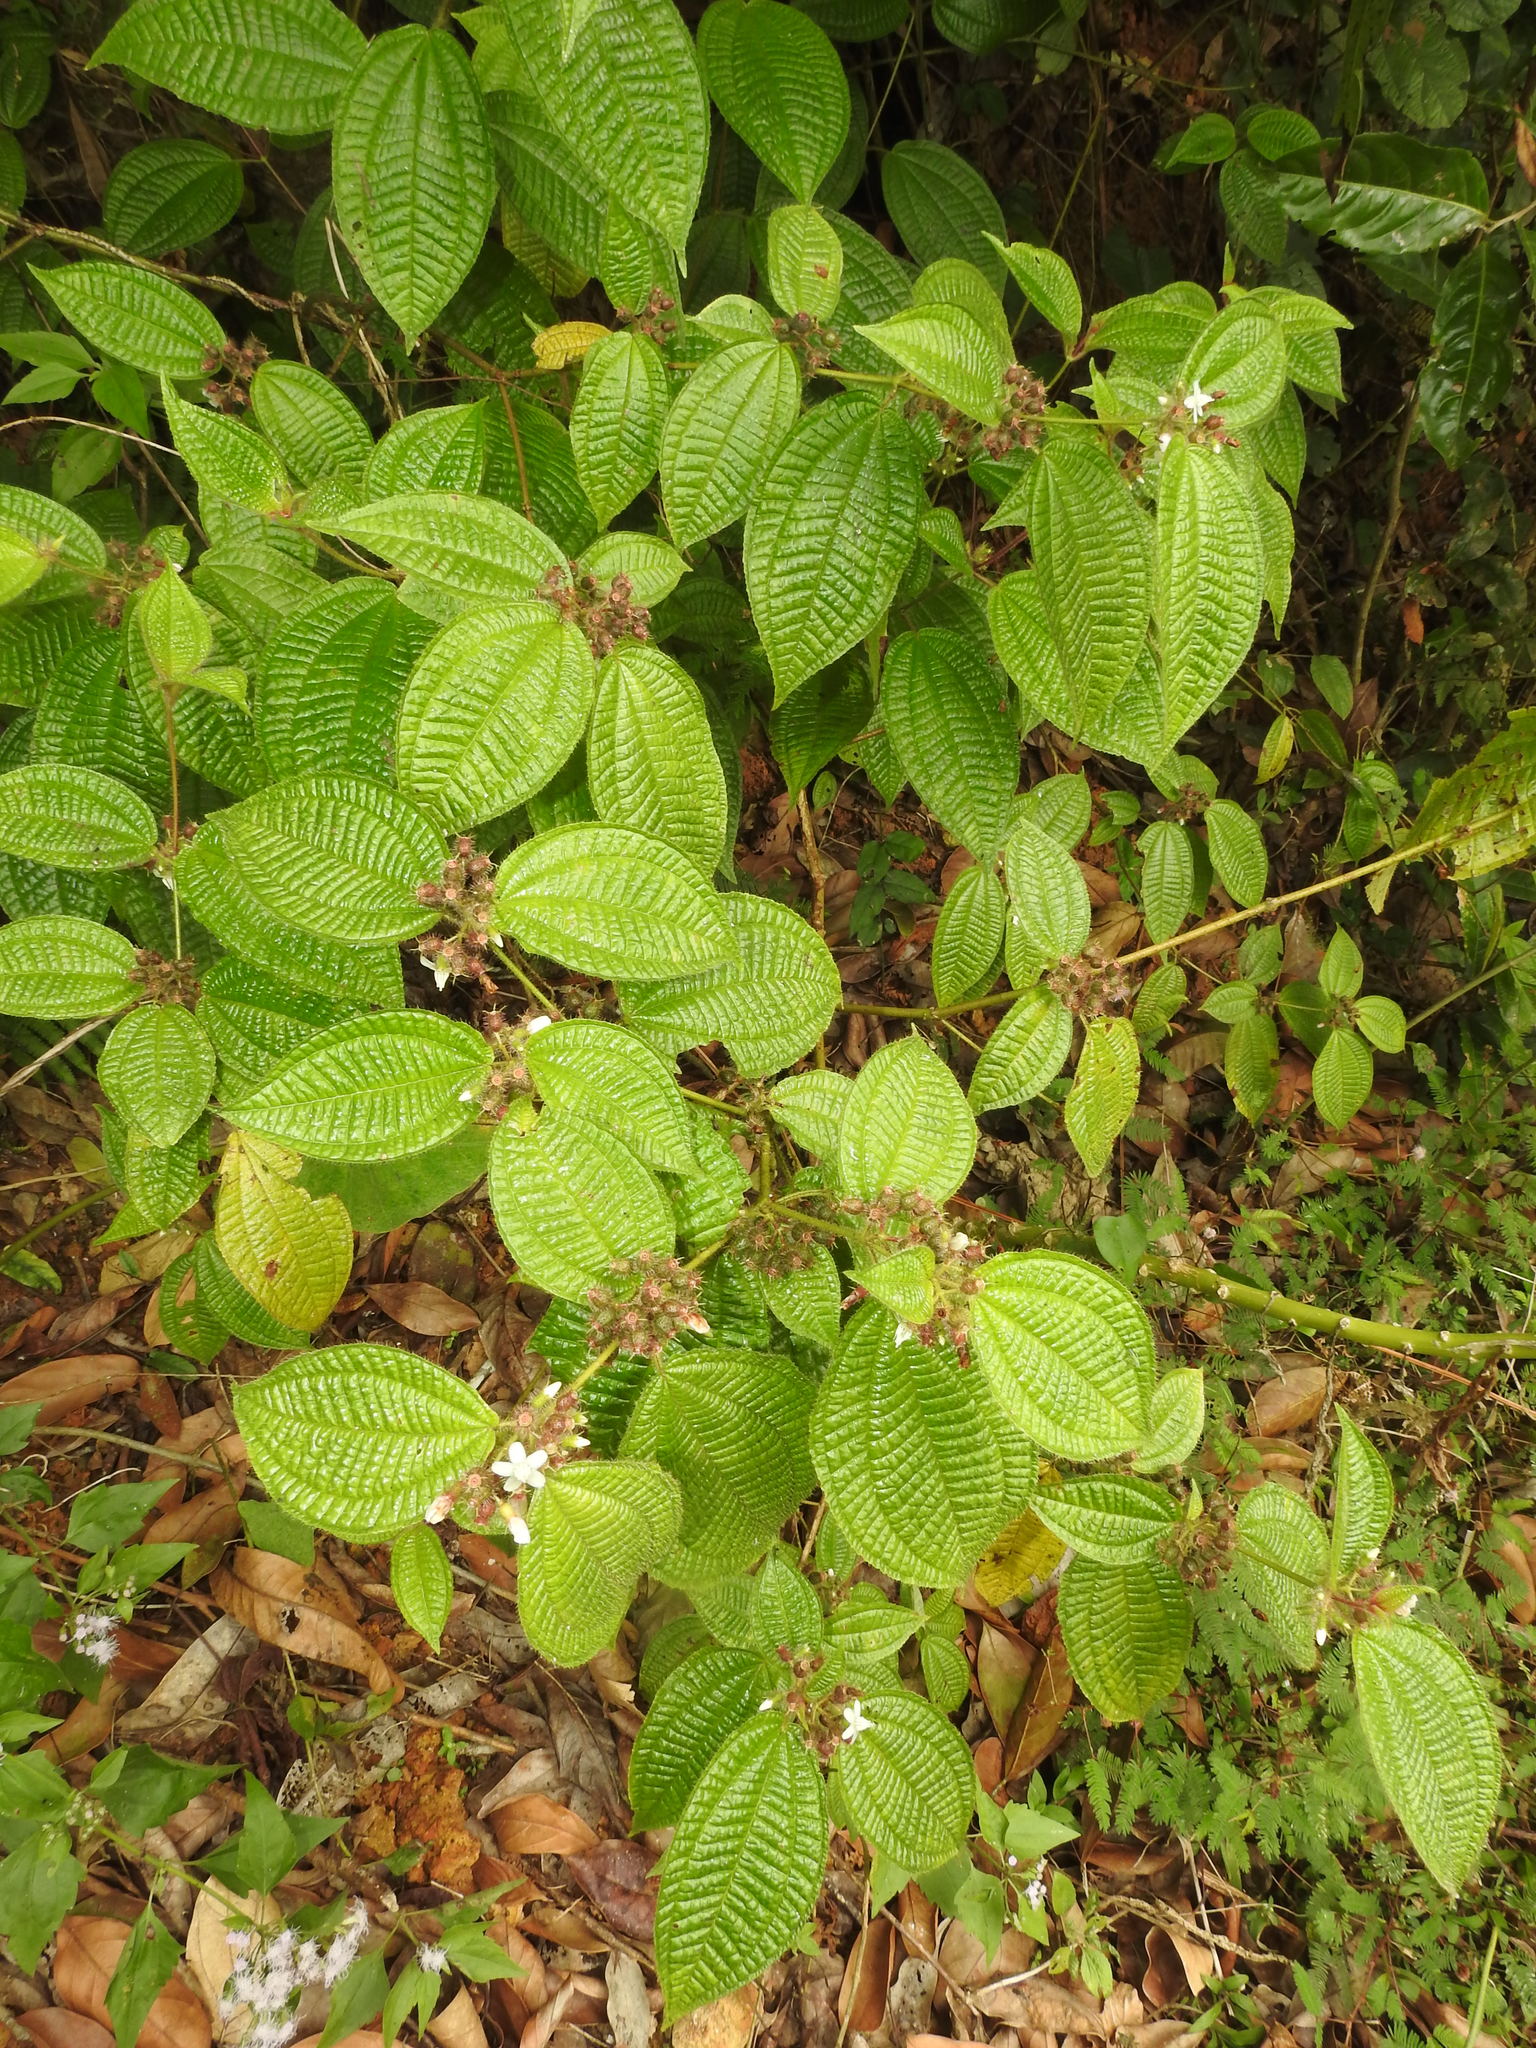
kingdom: Plantae
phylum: Tracheophyta
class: Magnoliopsida
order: Myrtales
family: Melastomataceae
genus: Miconia
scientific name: Miconia crenata
